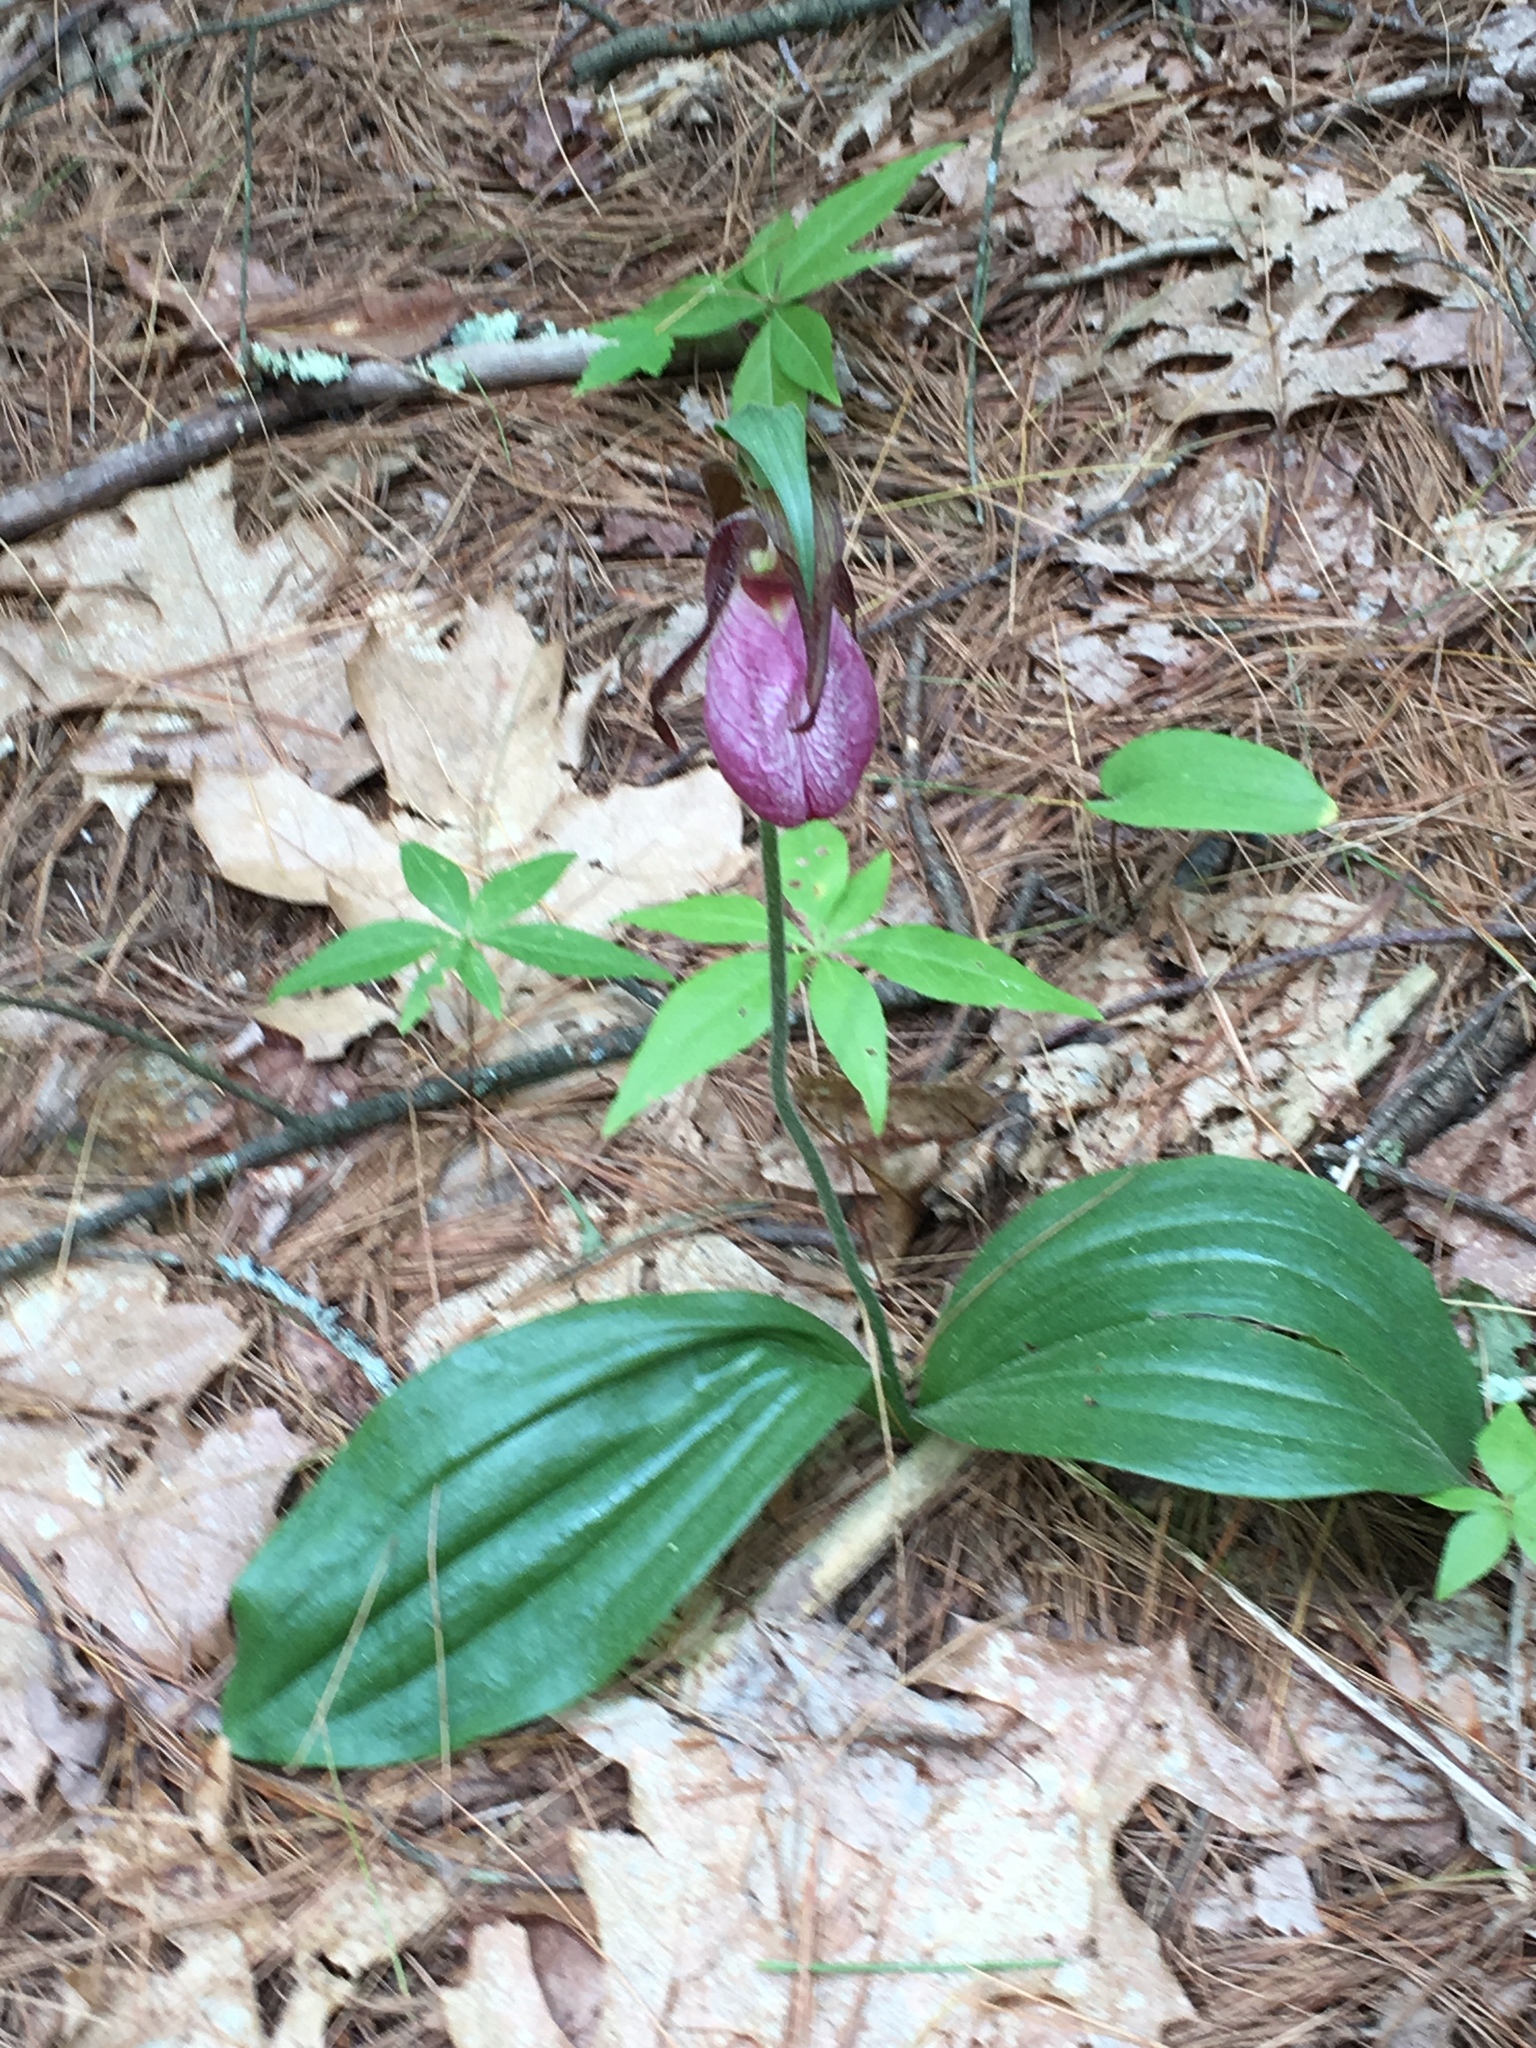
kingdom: Plantae
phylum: Tracheophyta
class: Liliopsida
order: Asparagales
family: Orchidaceae
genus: Cypripedium
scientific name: Cypripedium acaule
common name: Pink lady's-slipper
